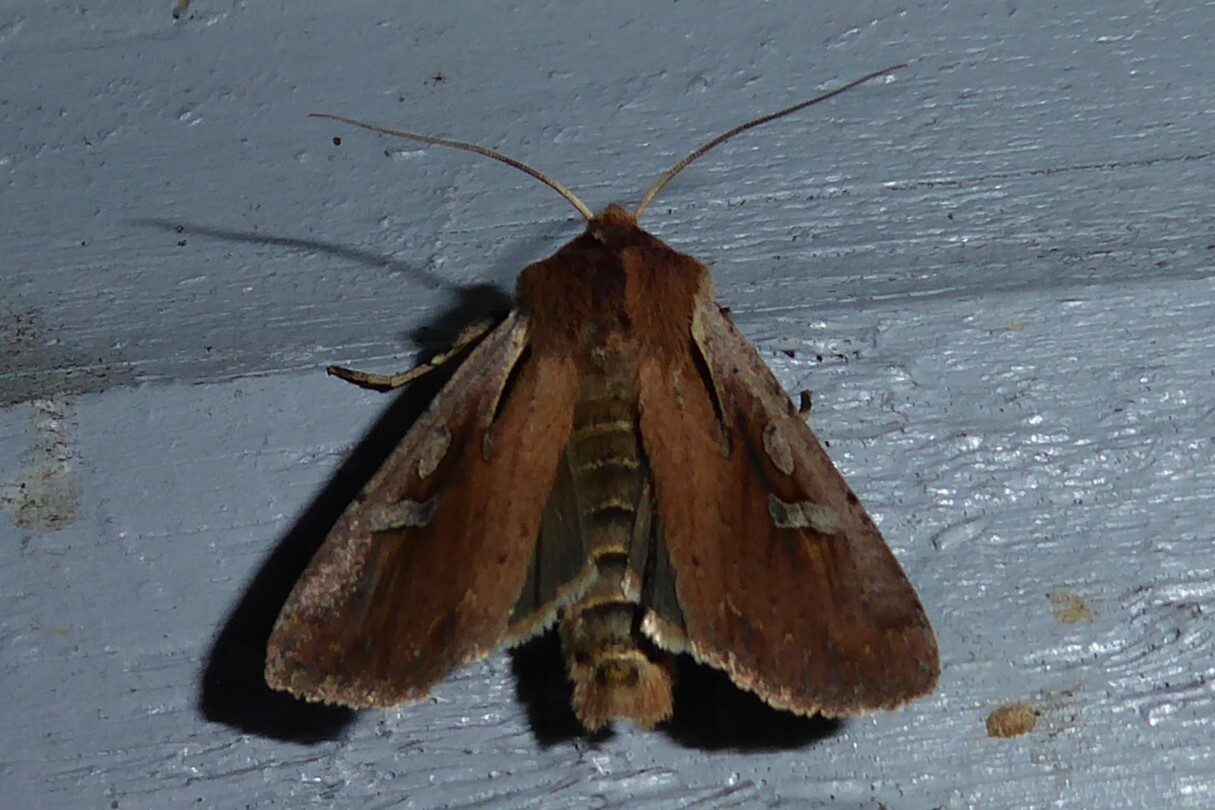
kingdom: Animalia
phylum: Arthropoda
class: Insecta
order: Lepidoptera
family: Noctuidae
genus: Ichneutica
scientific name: Ichneutica atristriga
